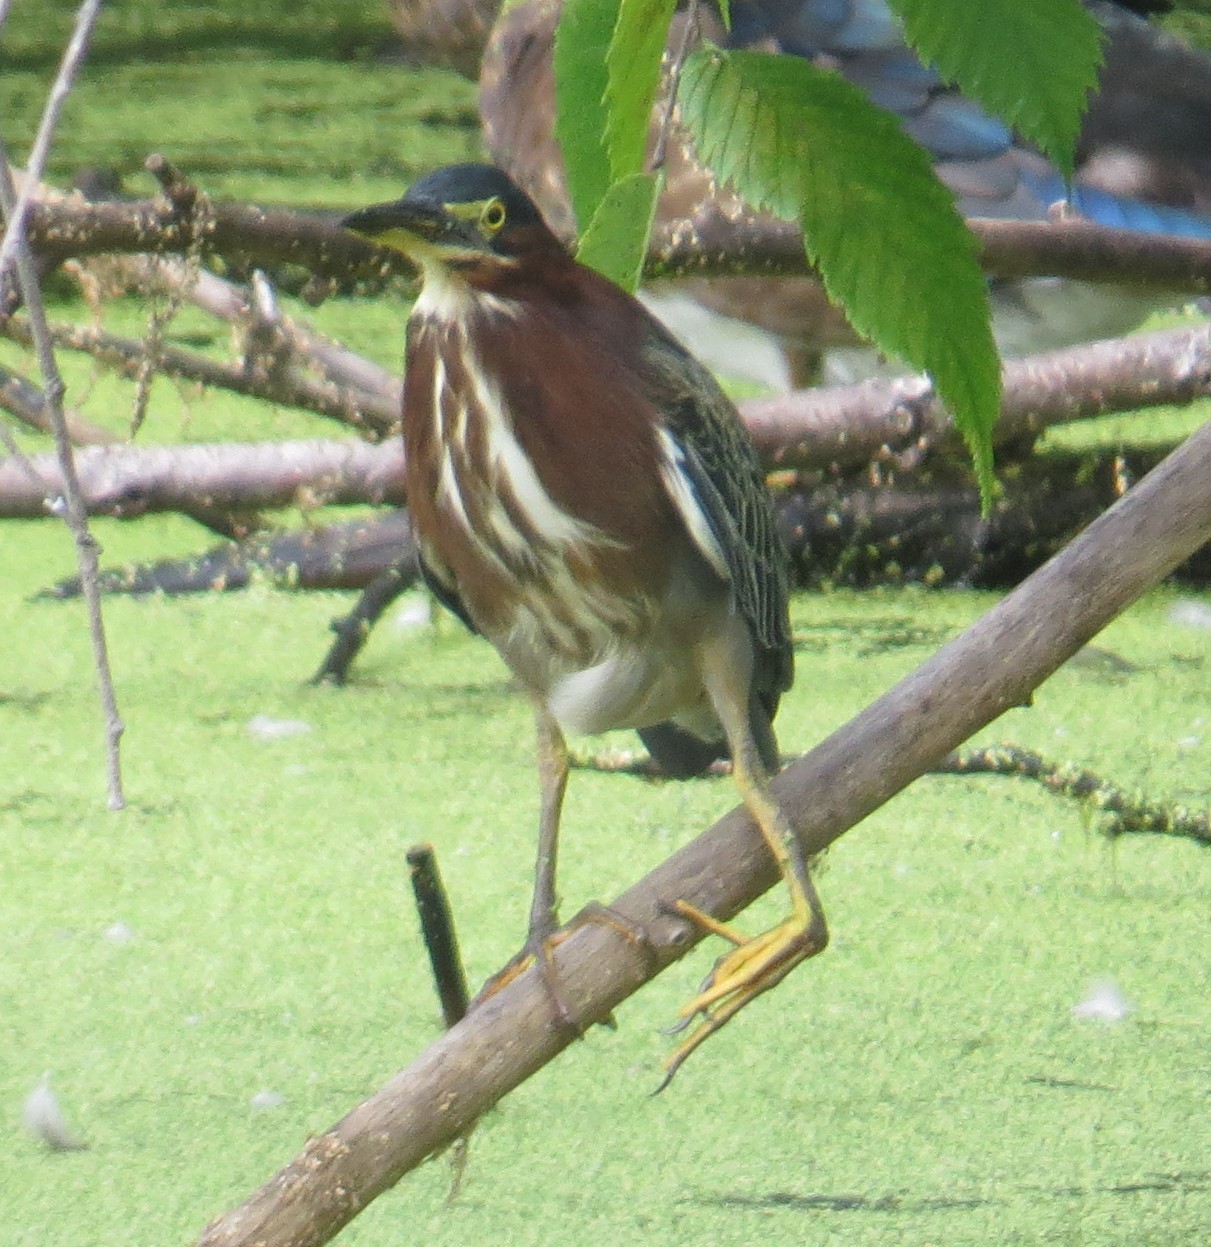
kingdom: Animalia
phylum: Chordata
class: Aves
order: Pelecaniformes
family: Ardeidae
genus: Butorides
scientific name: Butorides virescens
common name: Green heron
